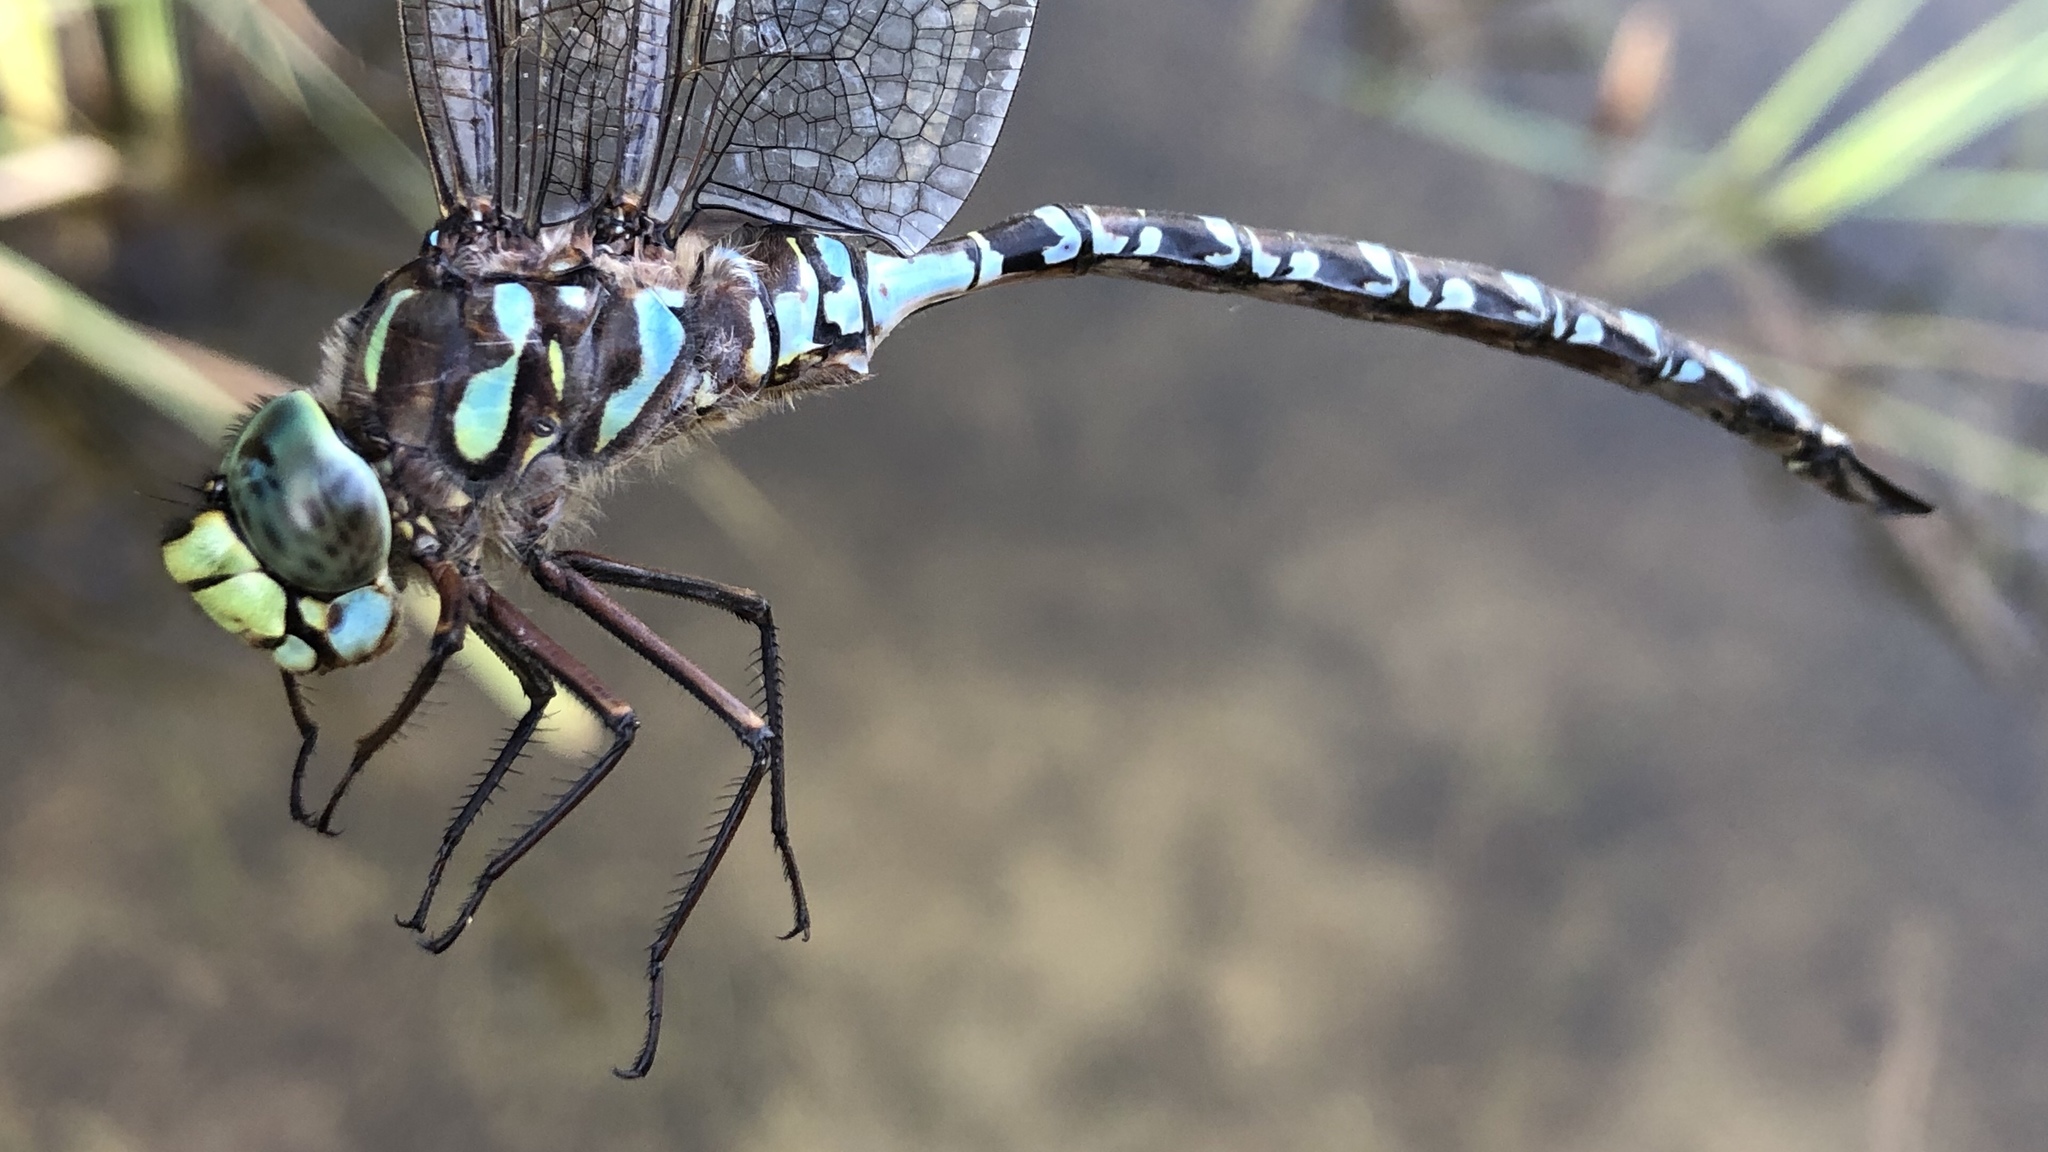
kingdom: Animalia
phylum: Arthropoda
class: Insecta
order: Odonata
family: Aeshnidae
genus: Aeshna
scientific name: Aeshna eremita
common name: Lake darner
